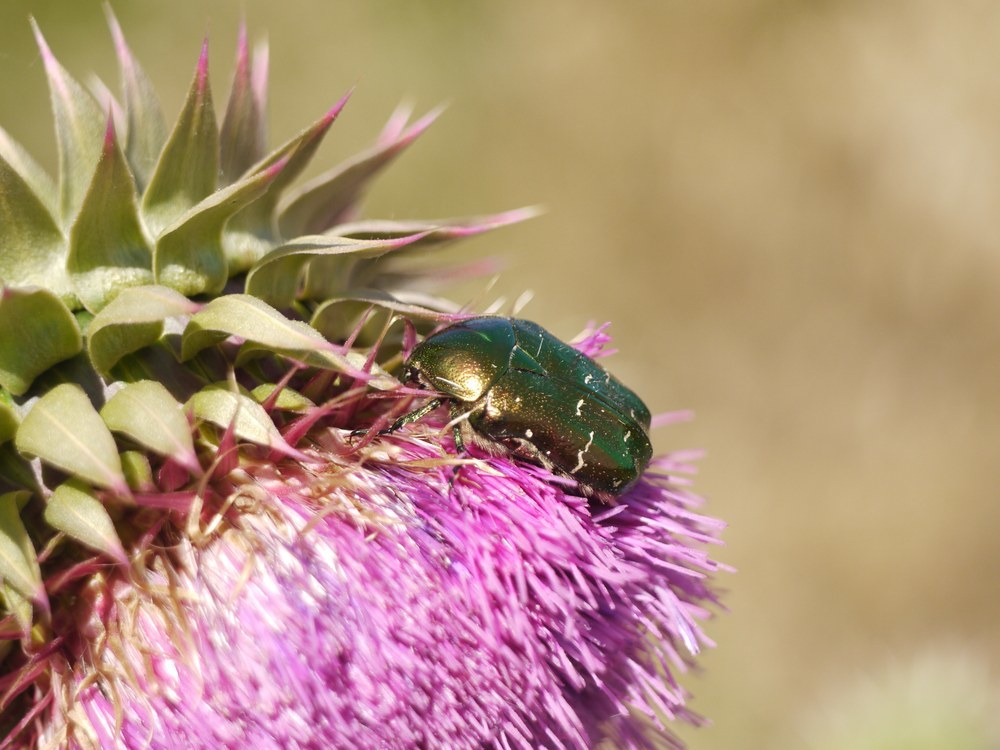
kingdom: Animalia
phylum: Arthropoda
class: Insecta
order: Coleoptera
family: Scarabaeidae
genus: Cetonia
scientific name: Cetonia aurata
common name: Rose chafer
